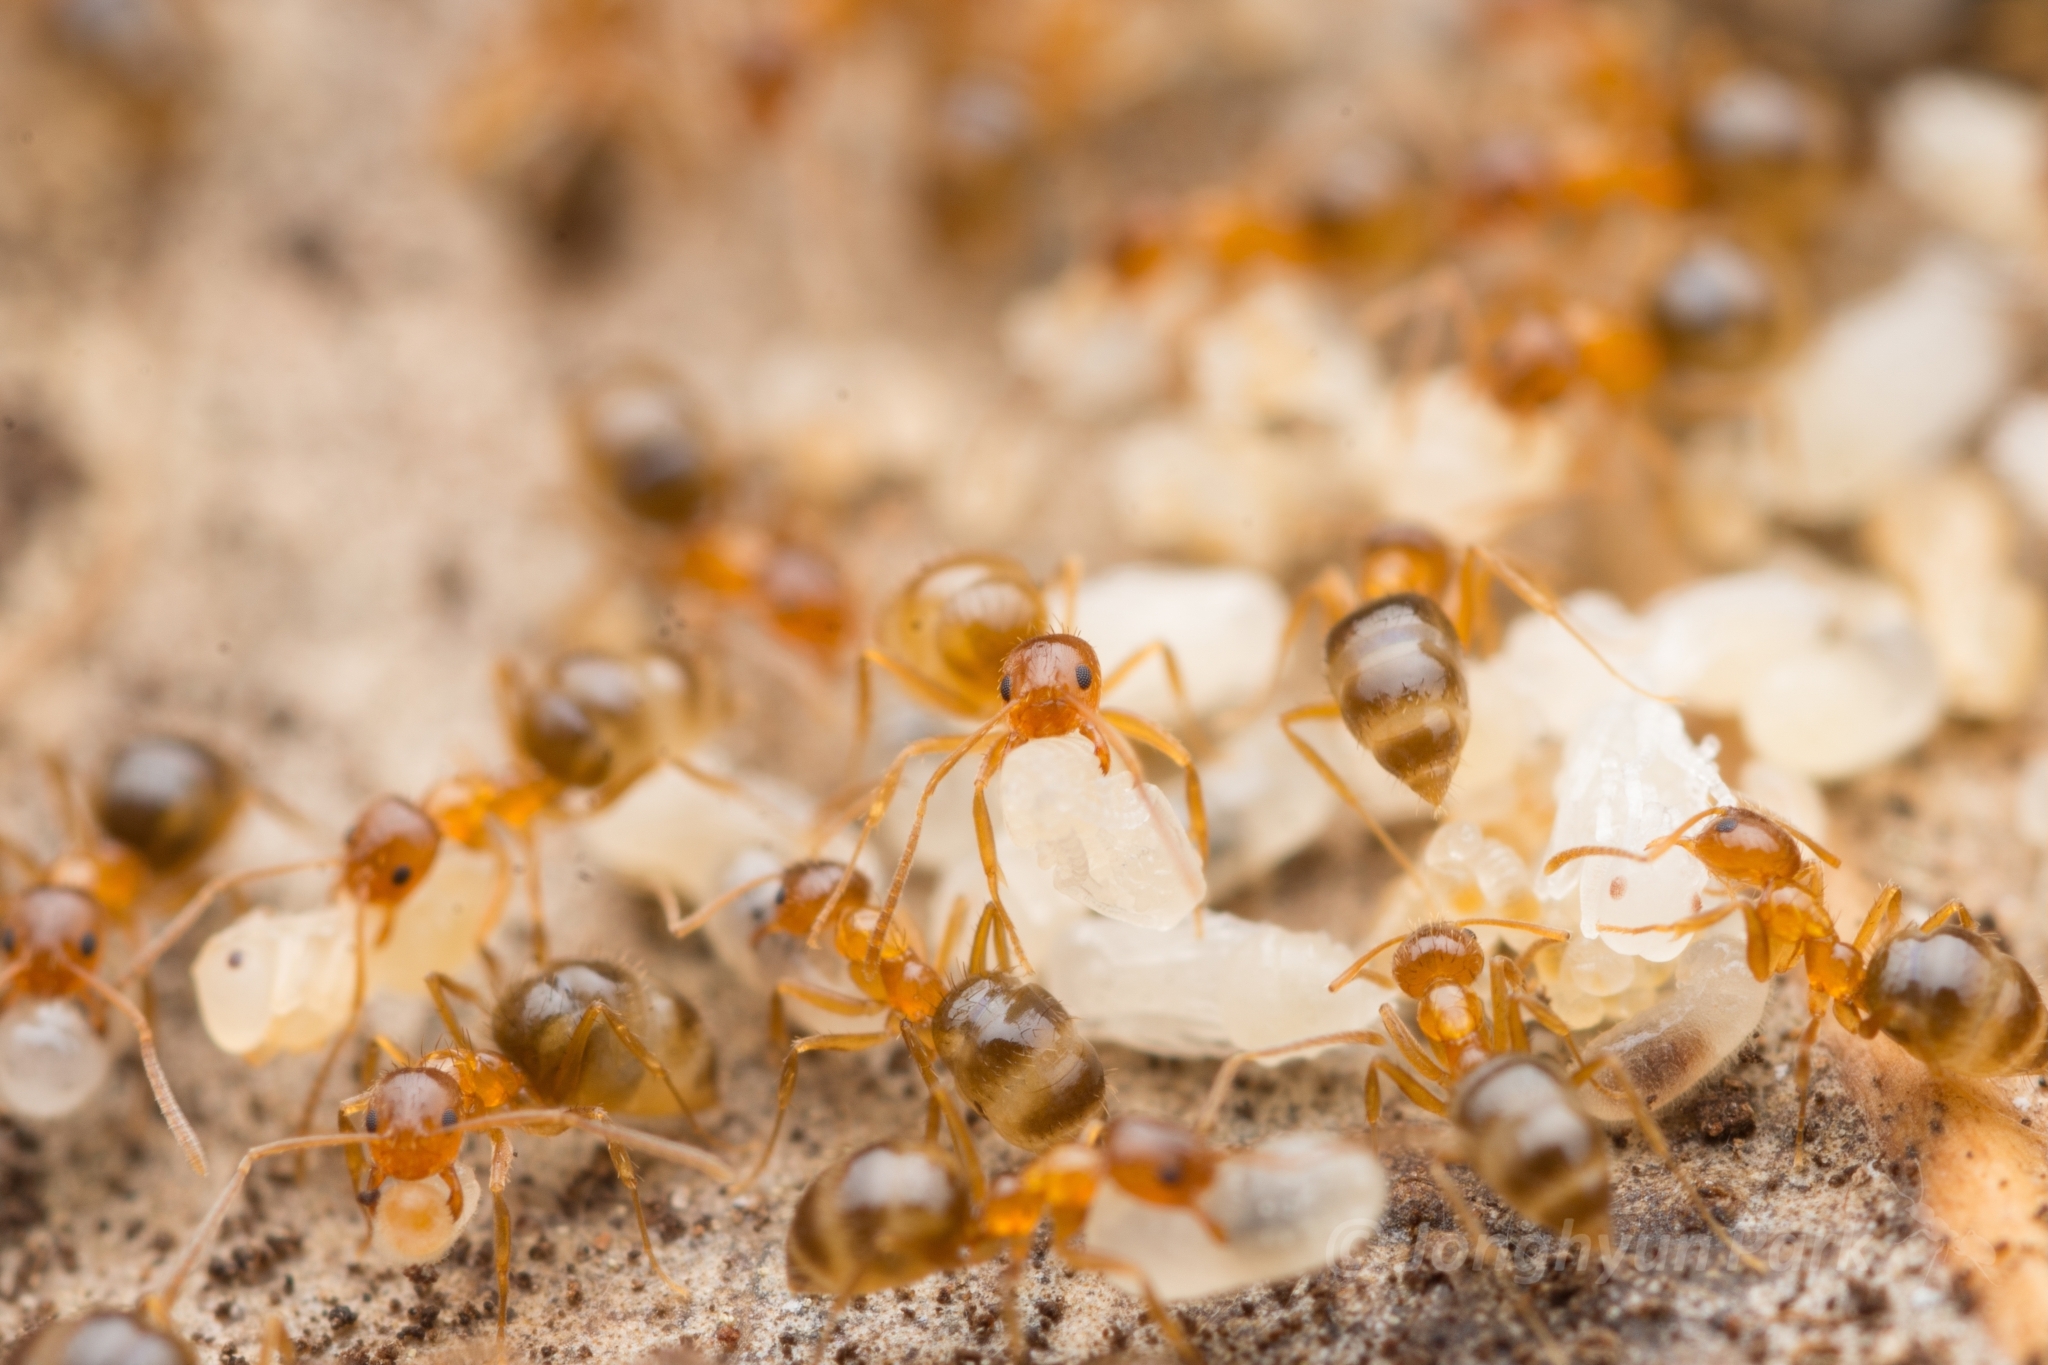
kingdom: Animalia
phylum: Arthropoda
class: Insecta
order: Hymenoptera
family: Formicidae
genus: Paratrechina
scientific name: Paratrechina flavipes
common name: Eastern asian formicine ant
